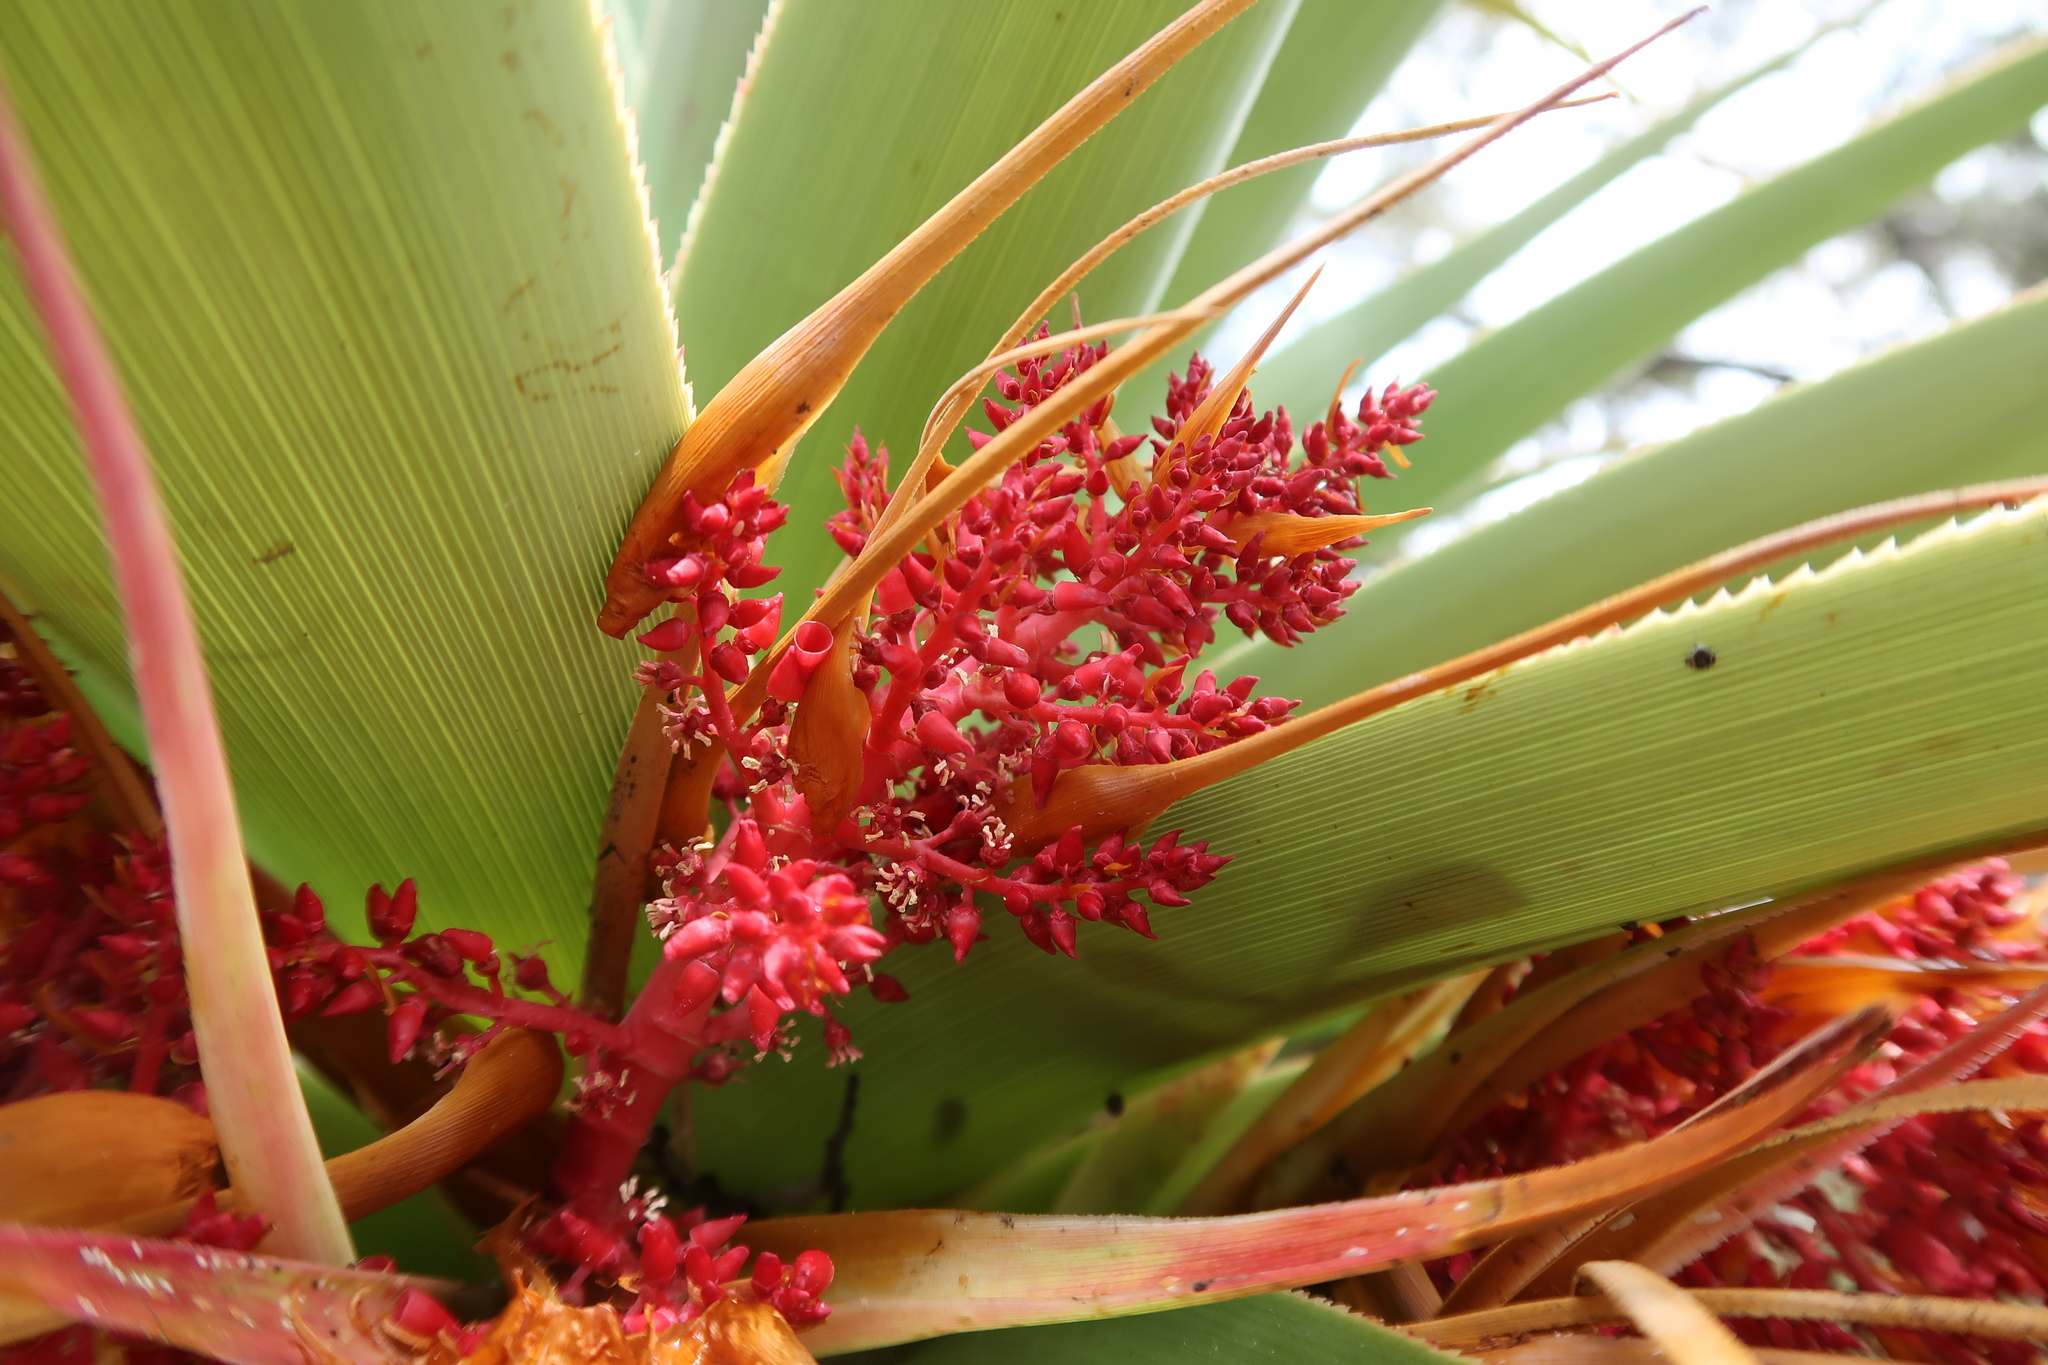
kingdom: Plantae
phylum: Tracheophyta
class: Magnoliopsida
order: Ericales
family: Ericaceae
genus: Dracophyllum
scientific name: Dracophyllum pandanifolium
